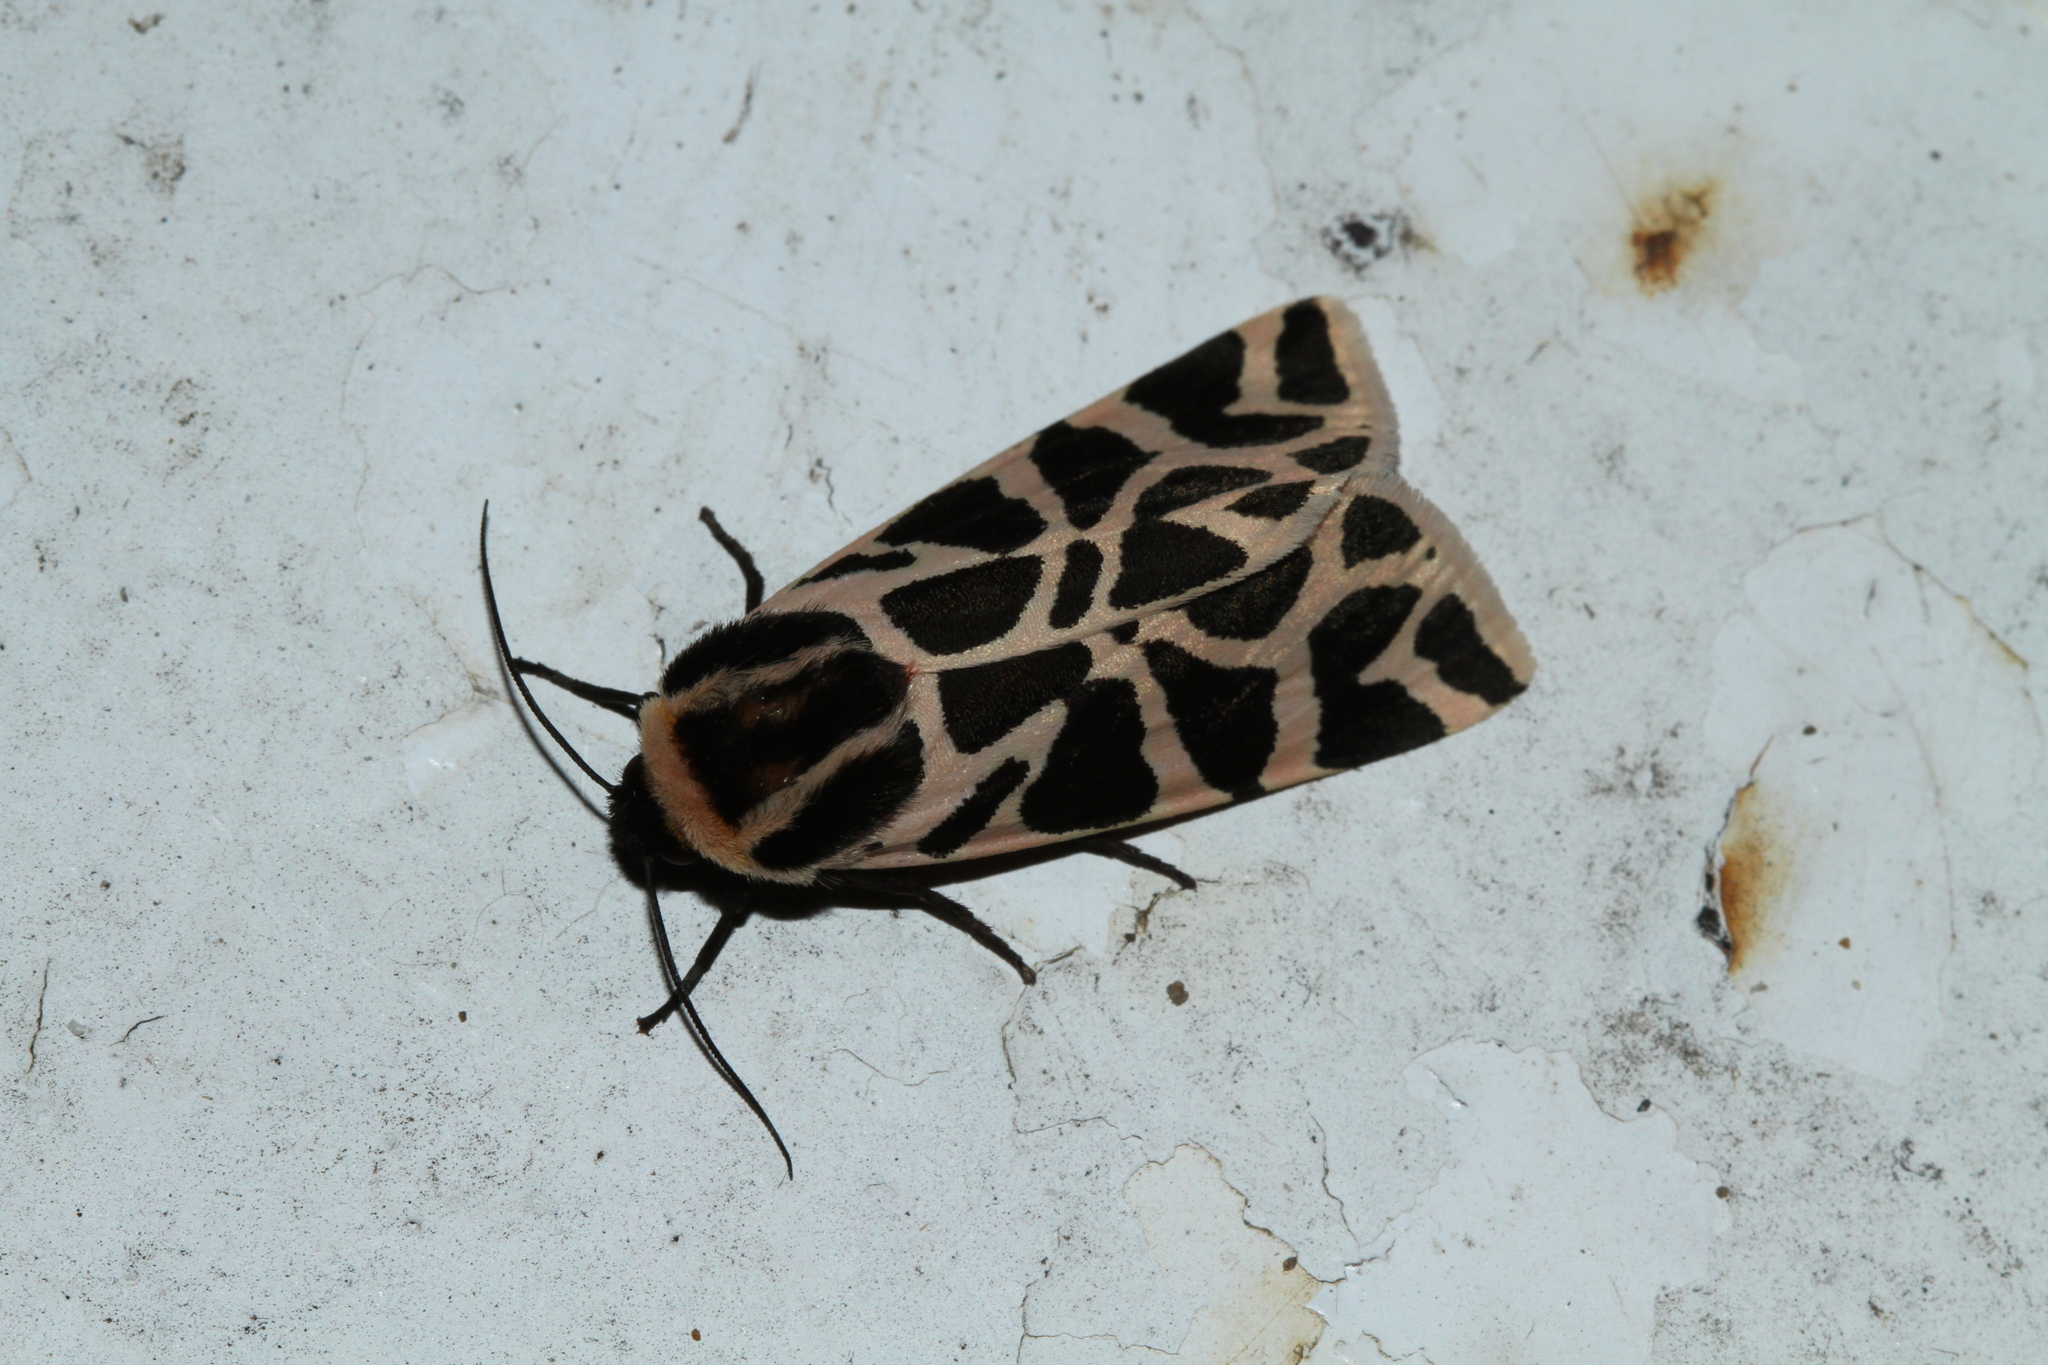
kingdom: Animalia
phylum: Arthropoda
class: Insecta
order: Lepidoptera
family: Erebidae
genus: Cymbalophora
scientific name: Cymbalophora pudica
